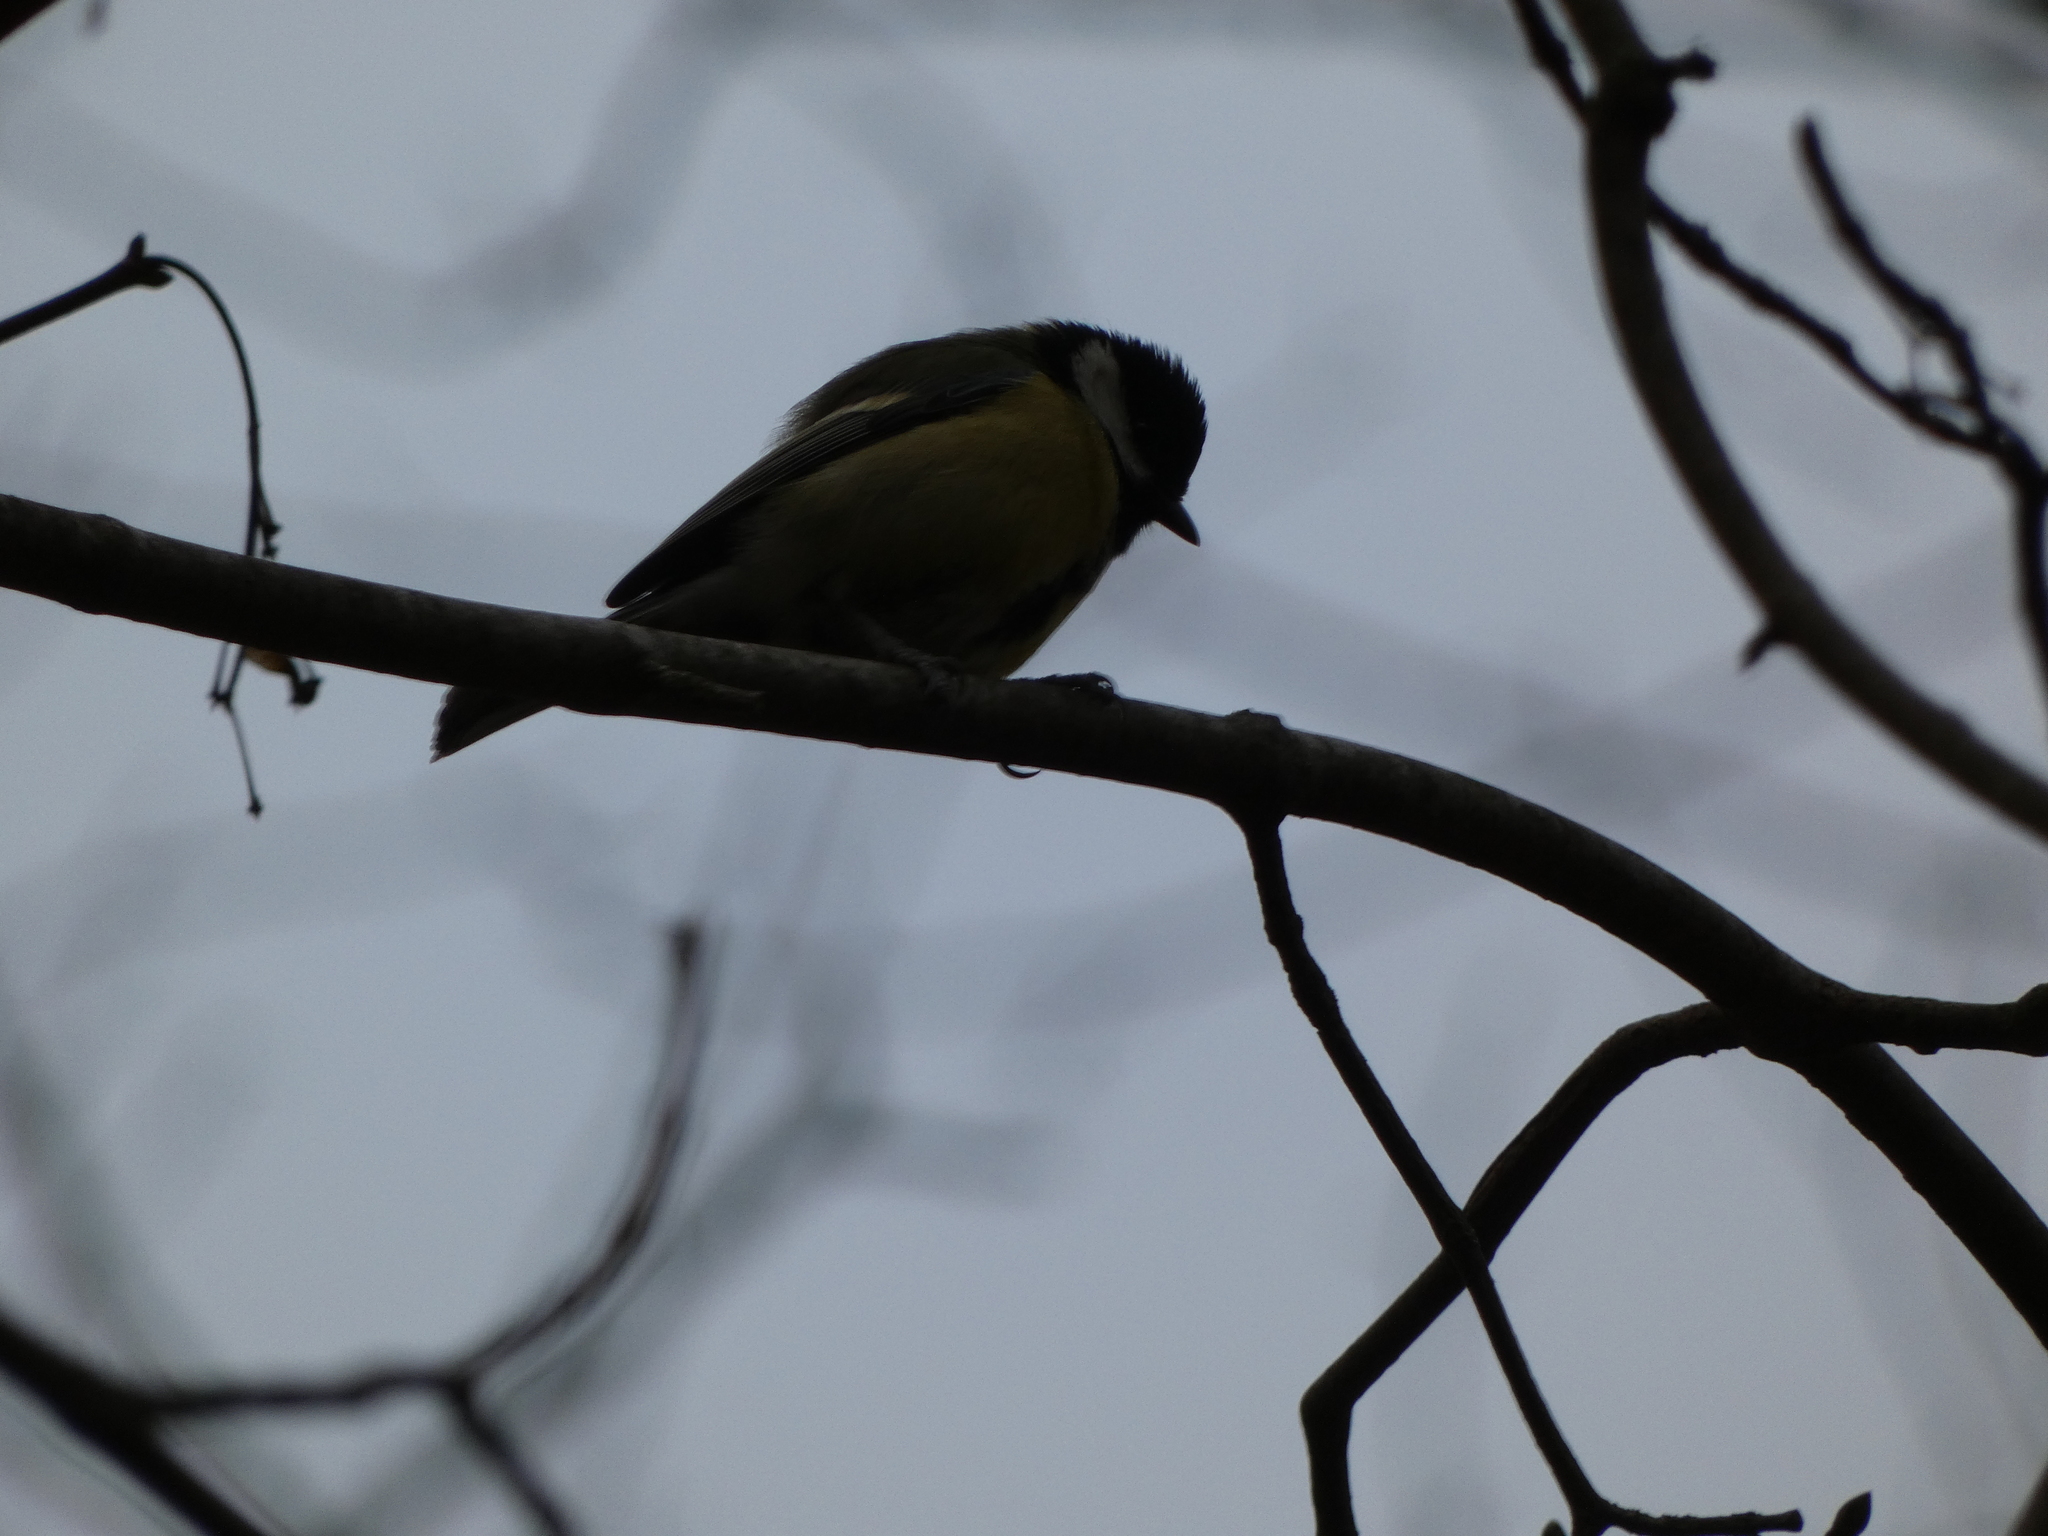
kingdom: Animalia
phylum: Chordata
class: Aves
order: Passeriformes
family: Paridae
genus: Parus
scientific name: Parus major
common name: Great tit
